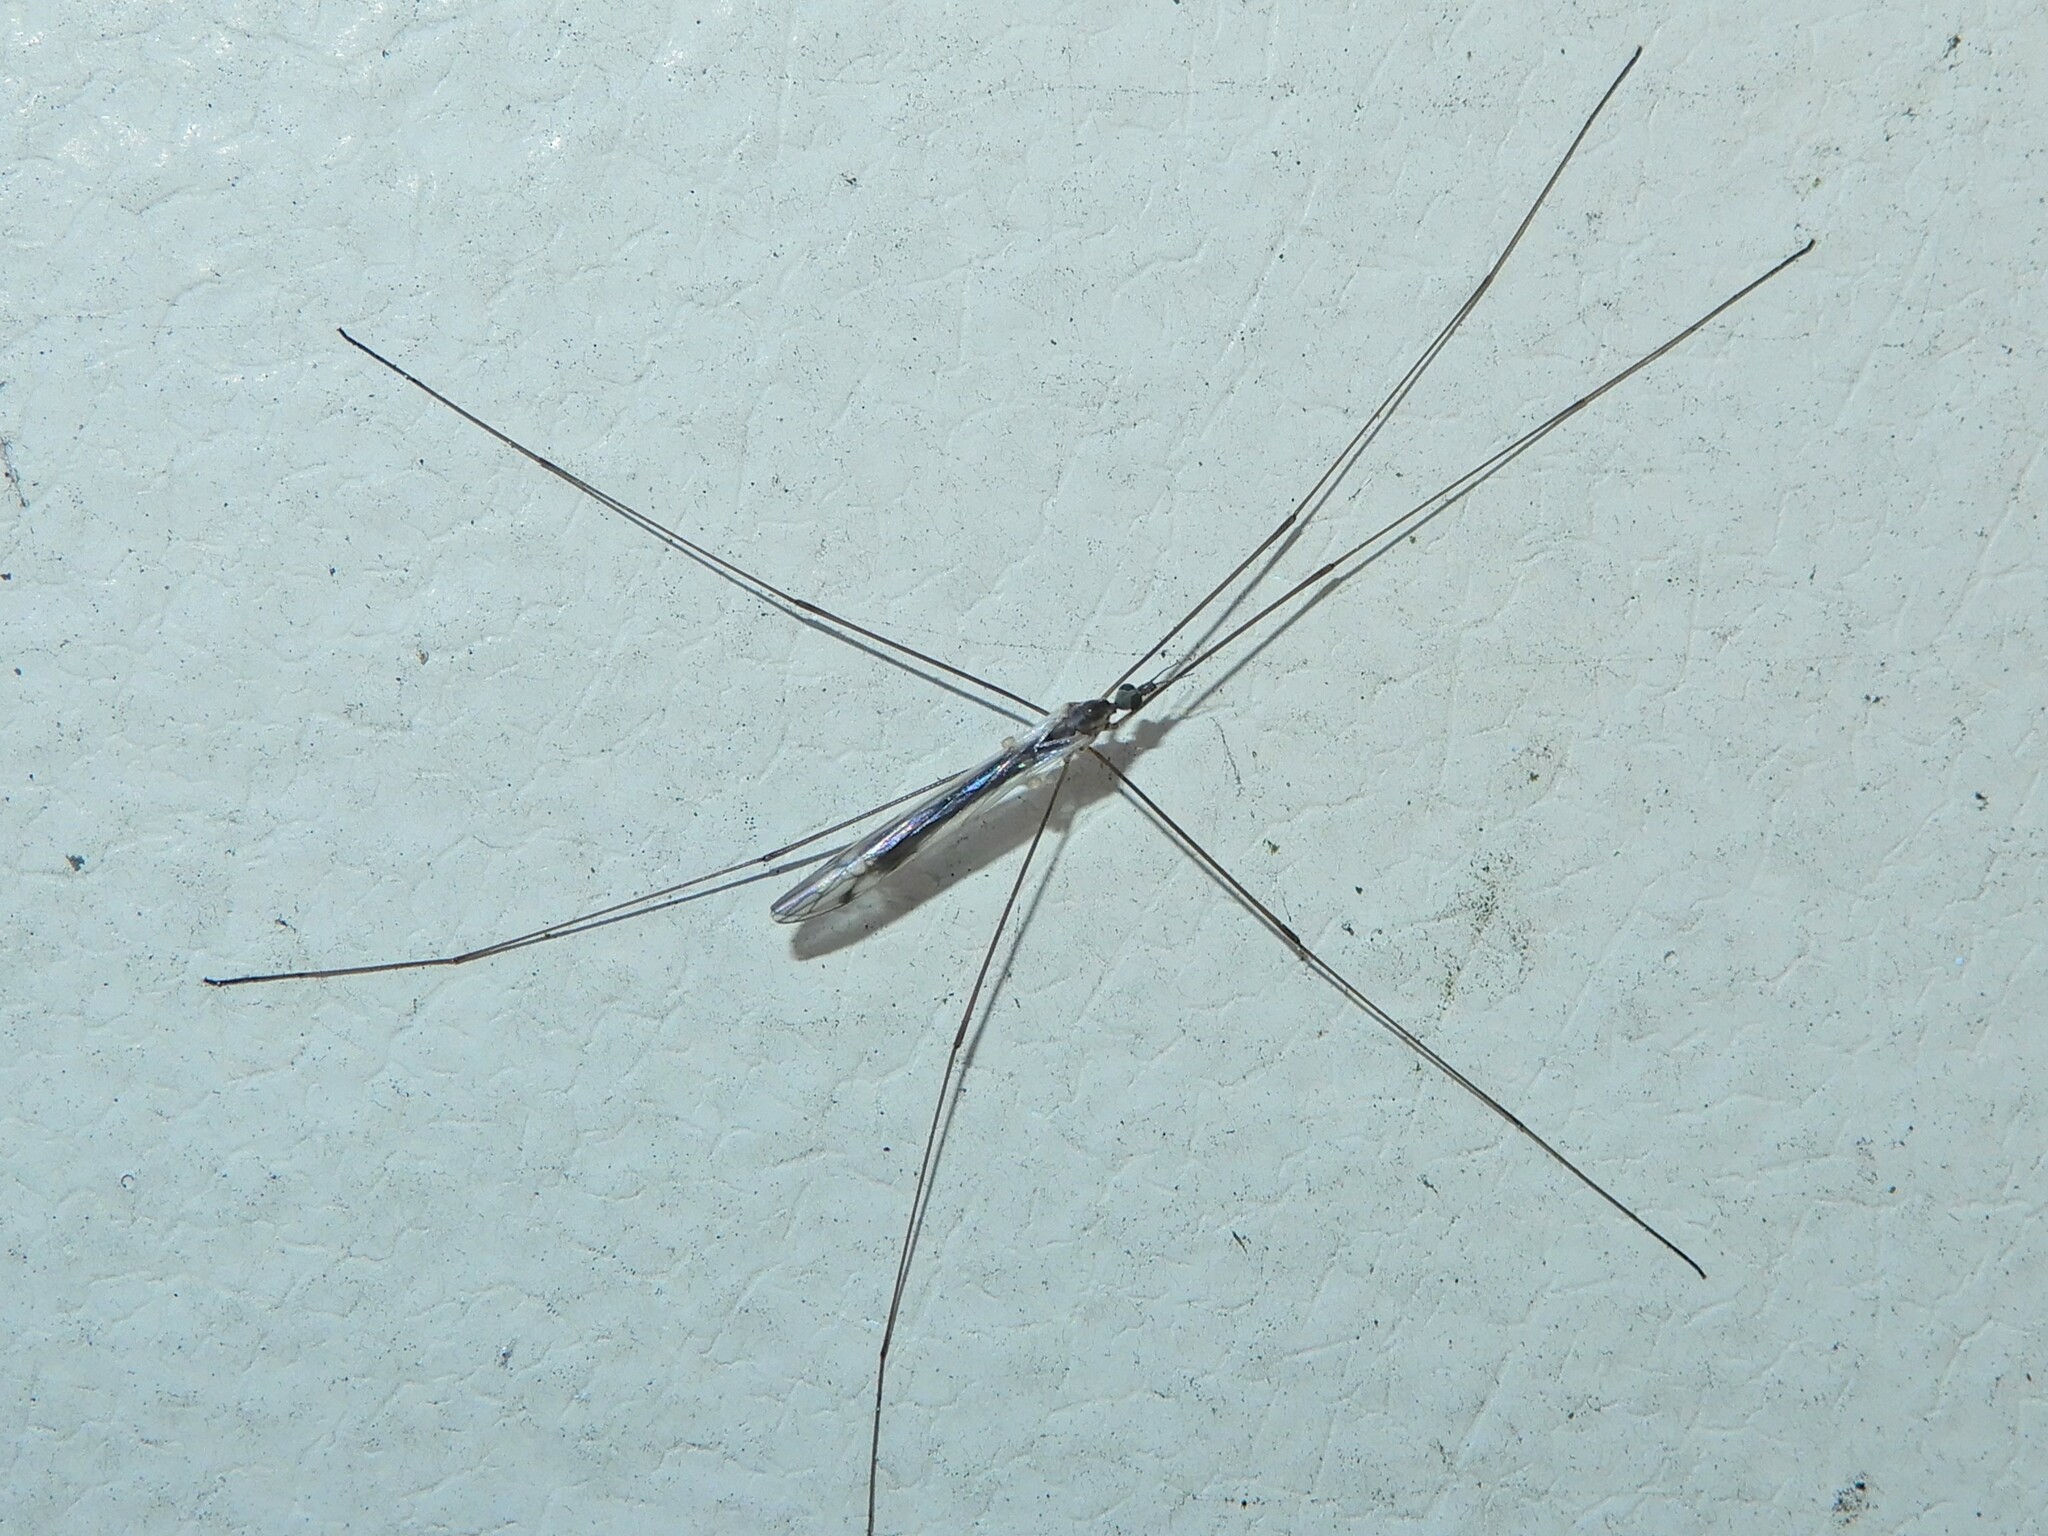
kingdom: Animalia
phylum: Arthropoda
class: Insecta
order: Diptera
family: Limoniidae
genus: Dicranomyia
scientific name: Dicranomyia aegrotans
